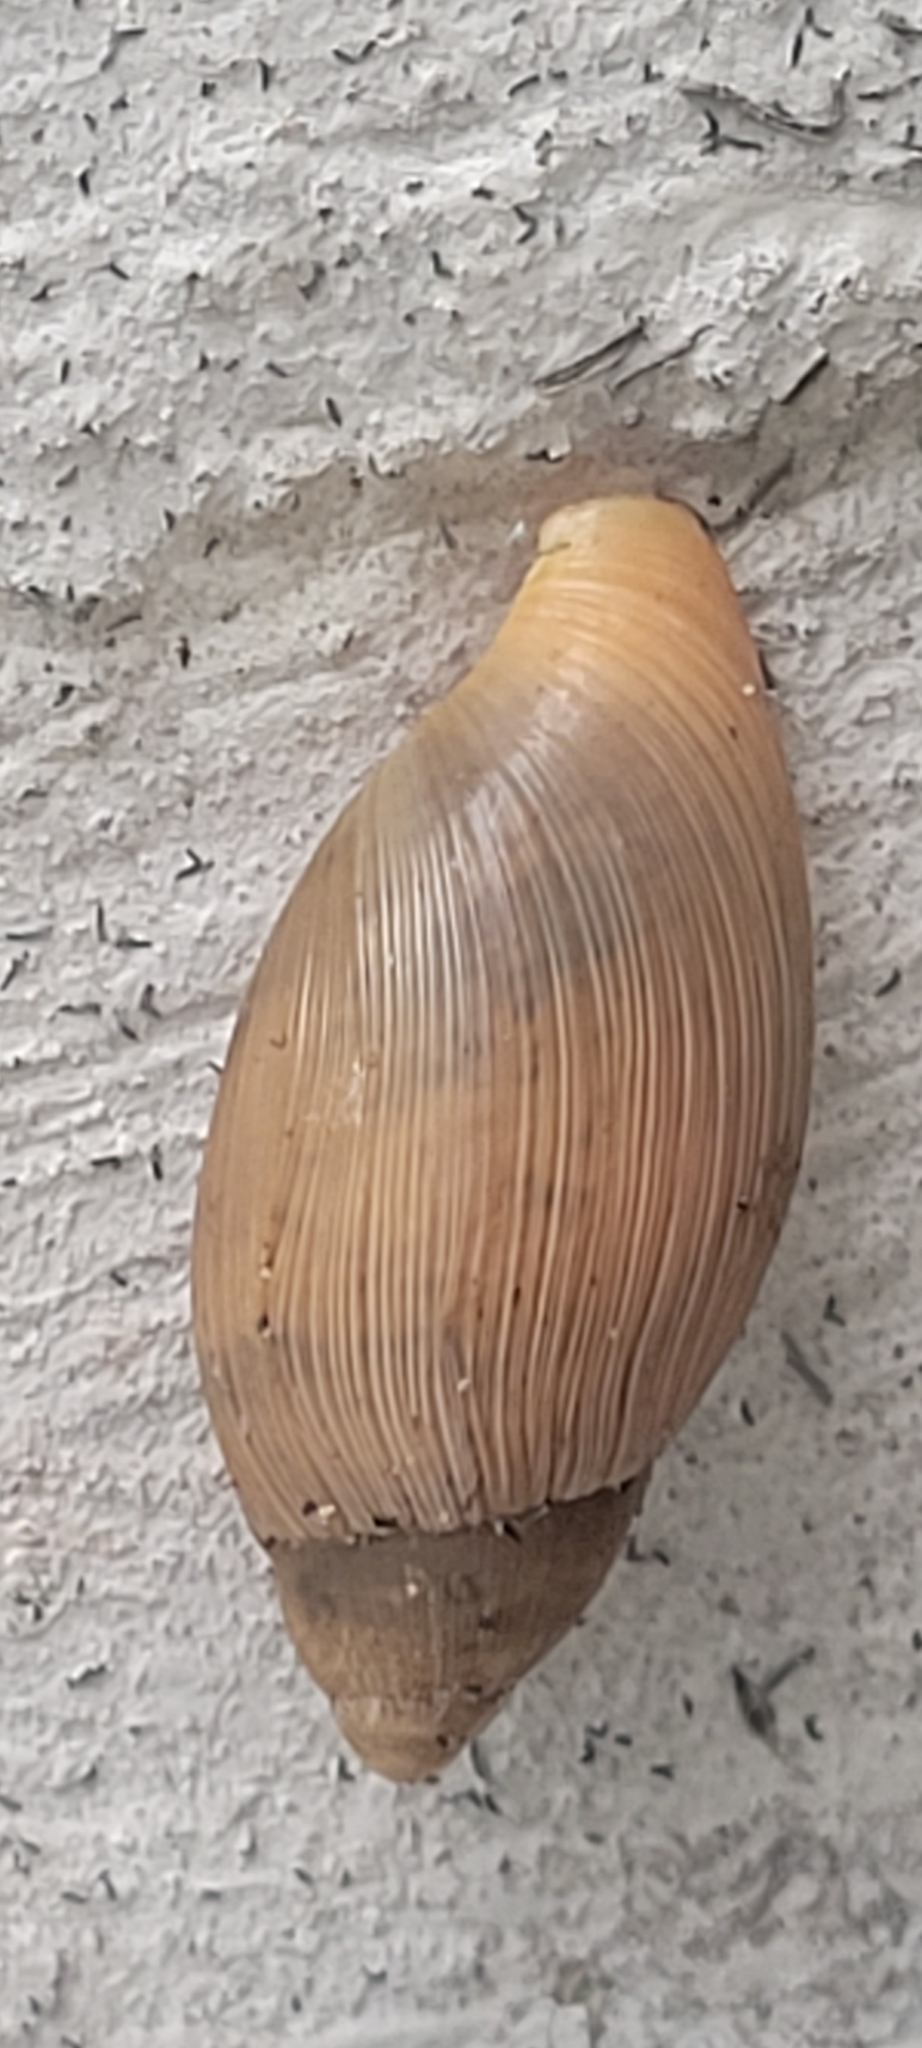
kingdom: Animalia
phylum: Mollusca
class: Gastropoda
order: Stylommatophora
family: Spiraxidae
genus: Euglandina
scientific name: Euglandina rosea
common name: Rosy wolfsnail
